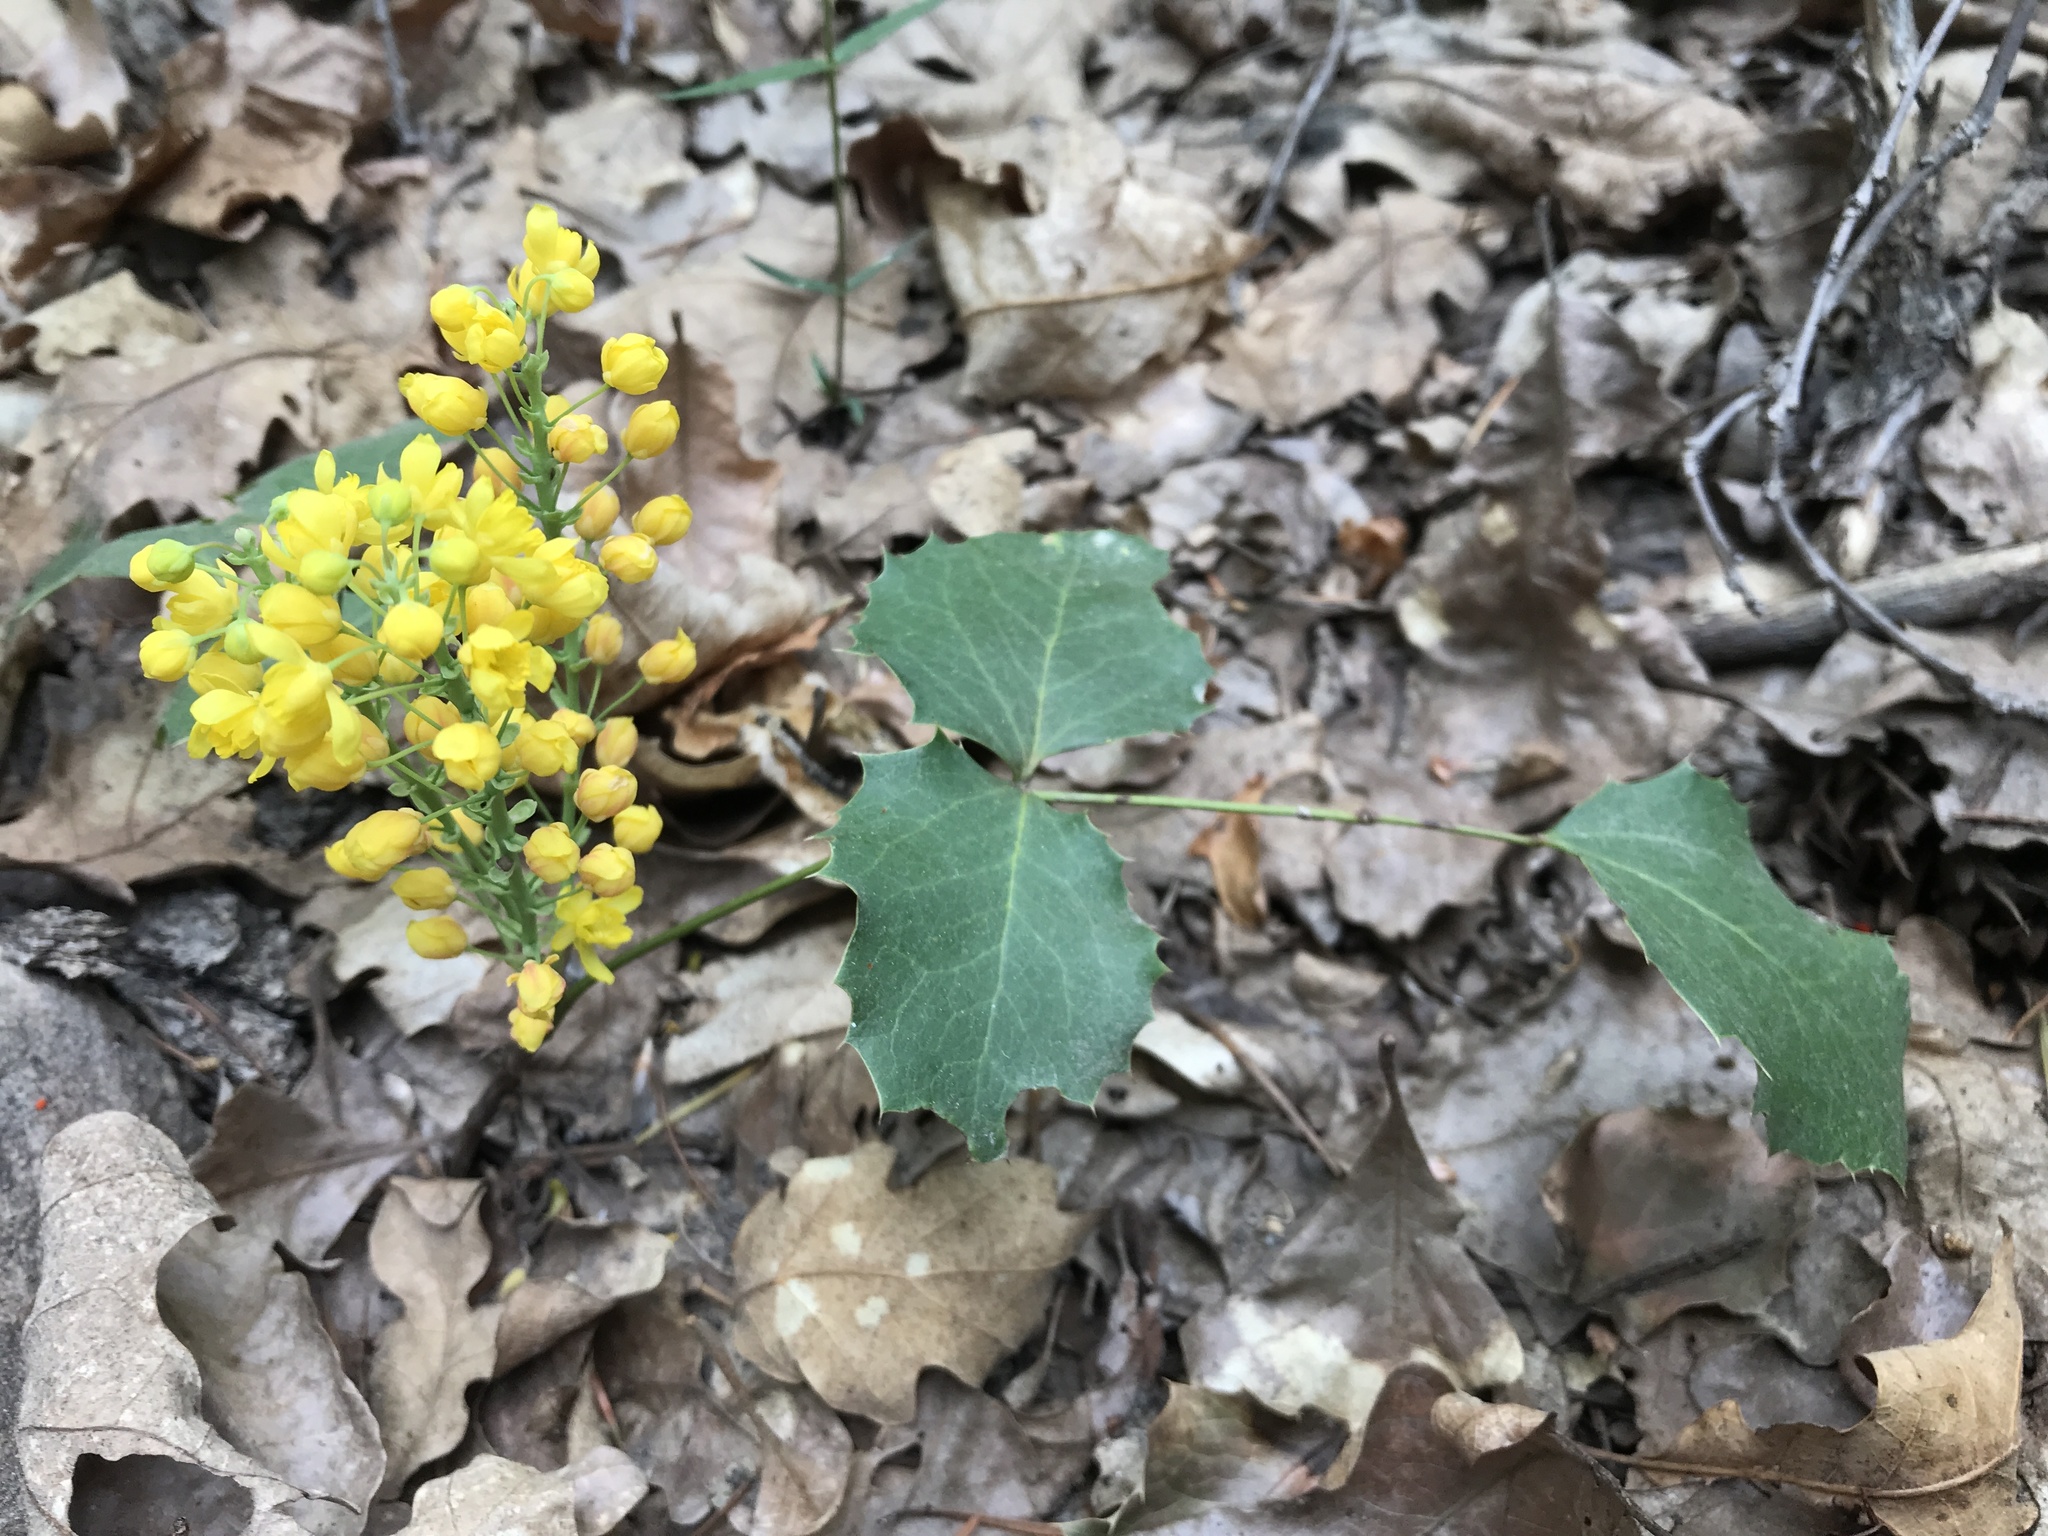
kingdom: Plantae
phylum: Tracheophyta
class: Magnoliopsida
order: Ranunculales
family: Berberidaceae
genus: Mahonia
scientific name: Mahonia repens
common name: Creeping oregon-grape
